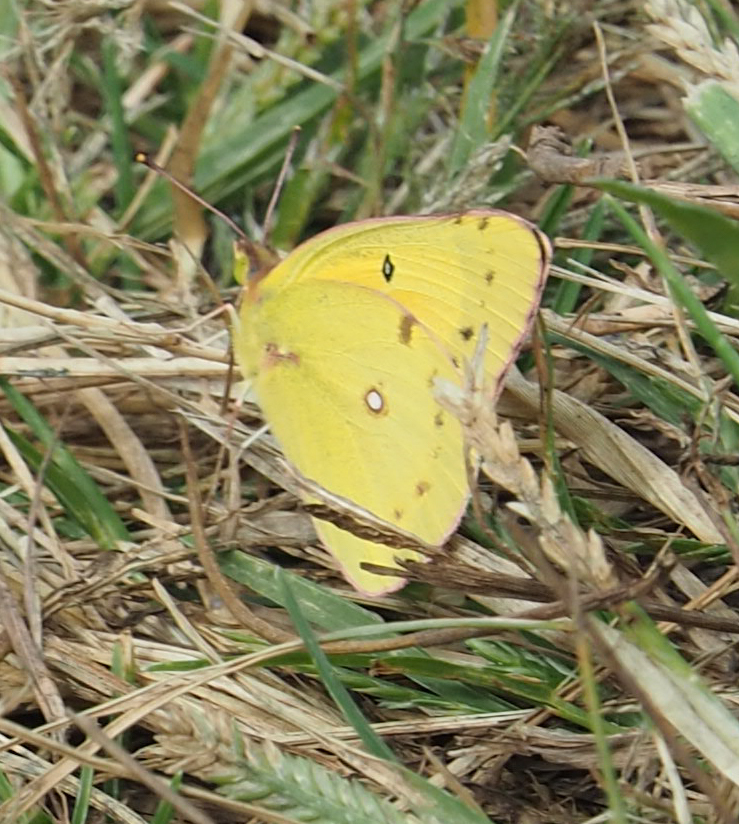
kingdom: Animalia
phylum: Arthropoda
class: Insecta
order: Lepidoptera
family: Pieridae
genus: Colias
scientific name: Colias eurytheme
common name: Alfalfa butterfly
